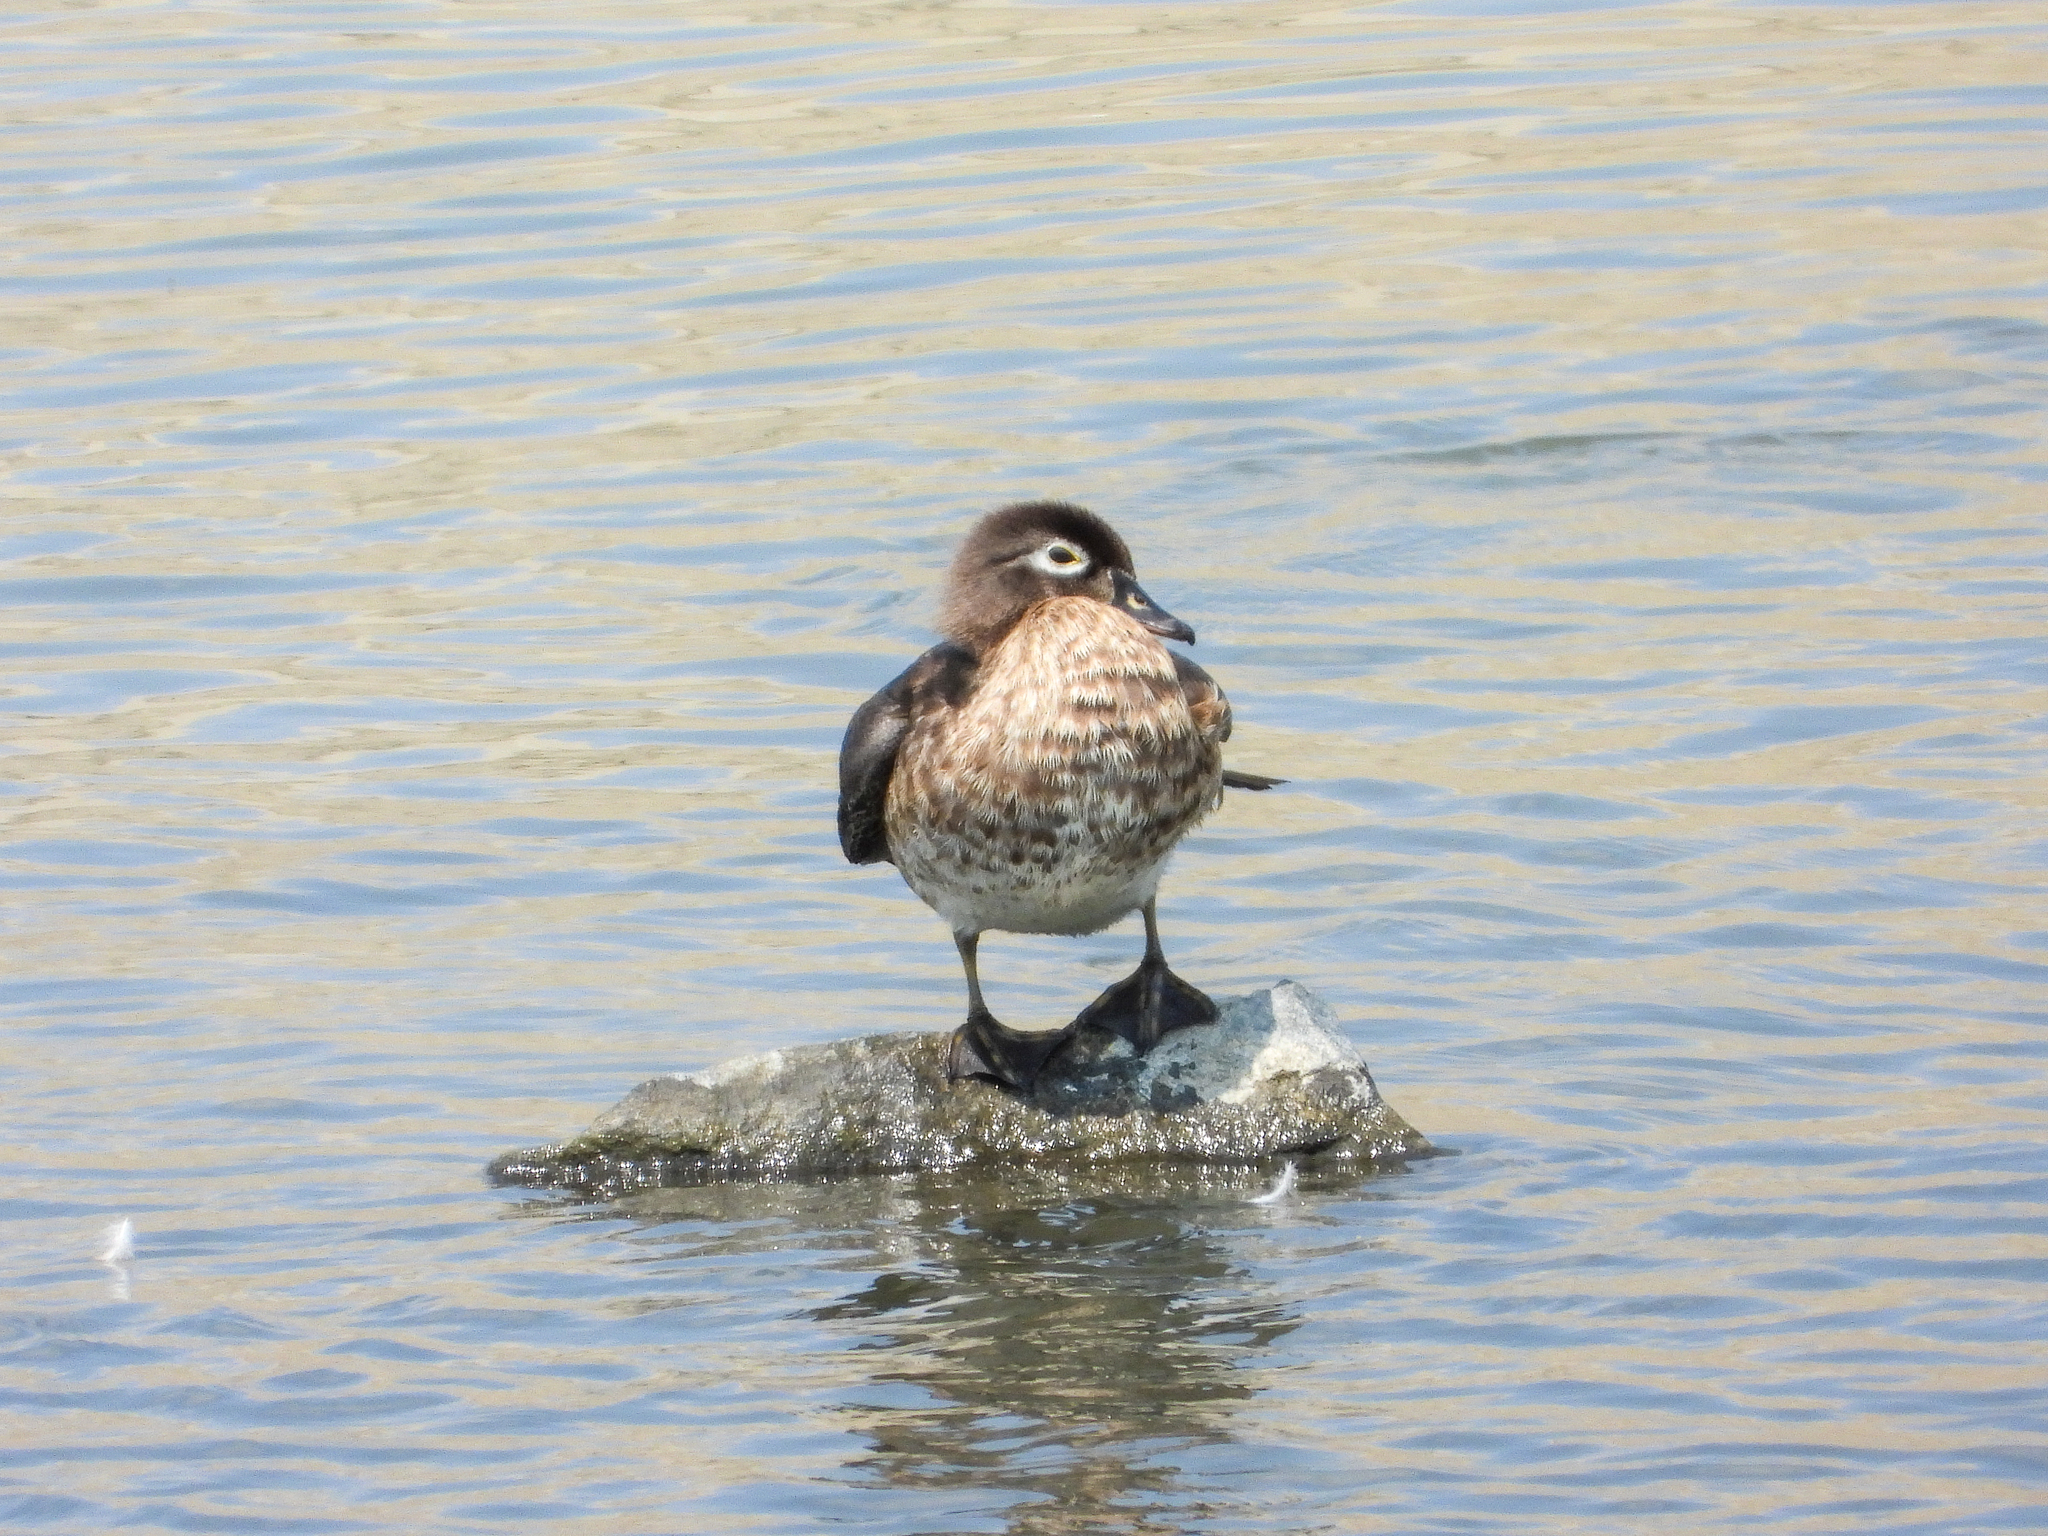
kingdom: Animalia
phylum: Chordata
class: Aves
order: Anseriformes
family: Anatidae
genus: Aix
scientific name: Aix sponsa
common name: Wood duck
